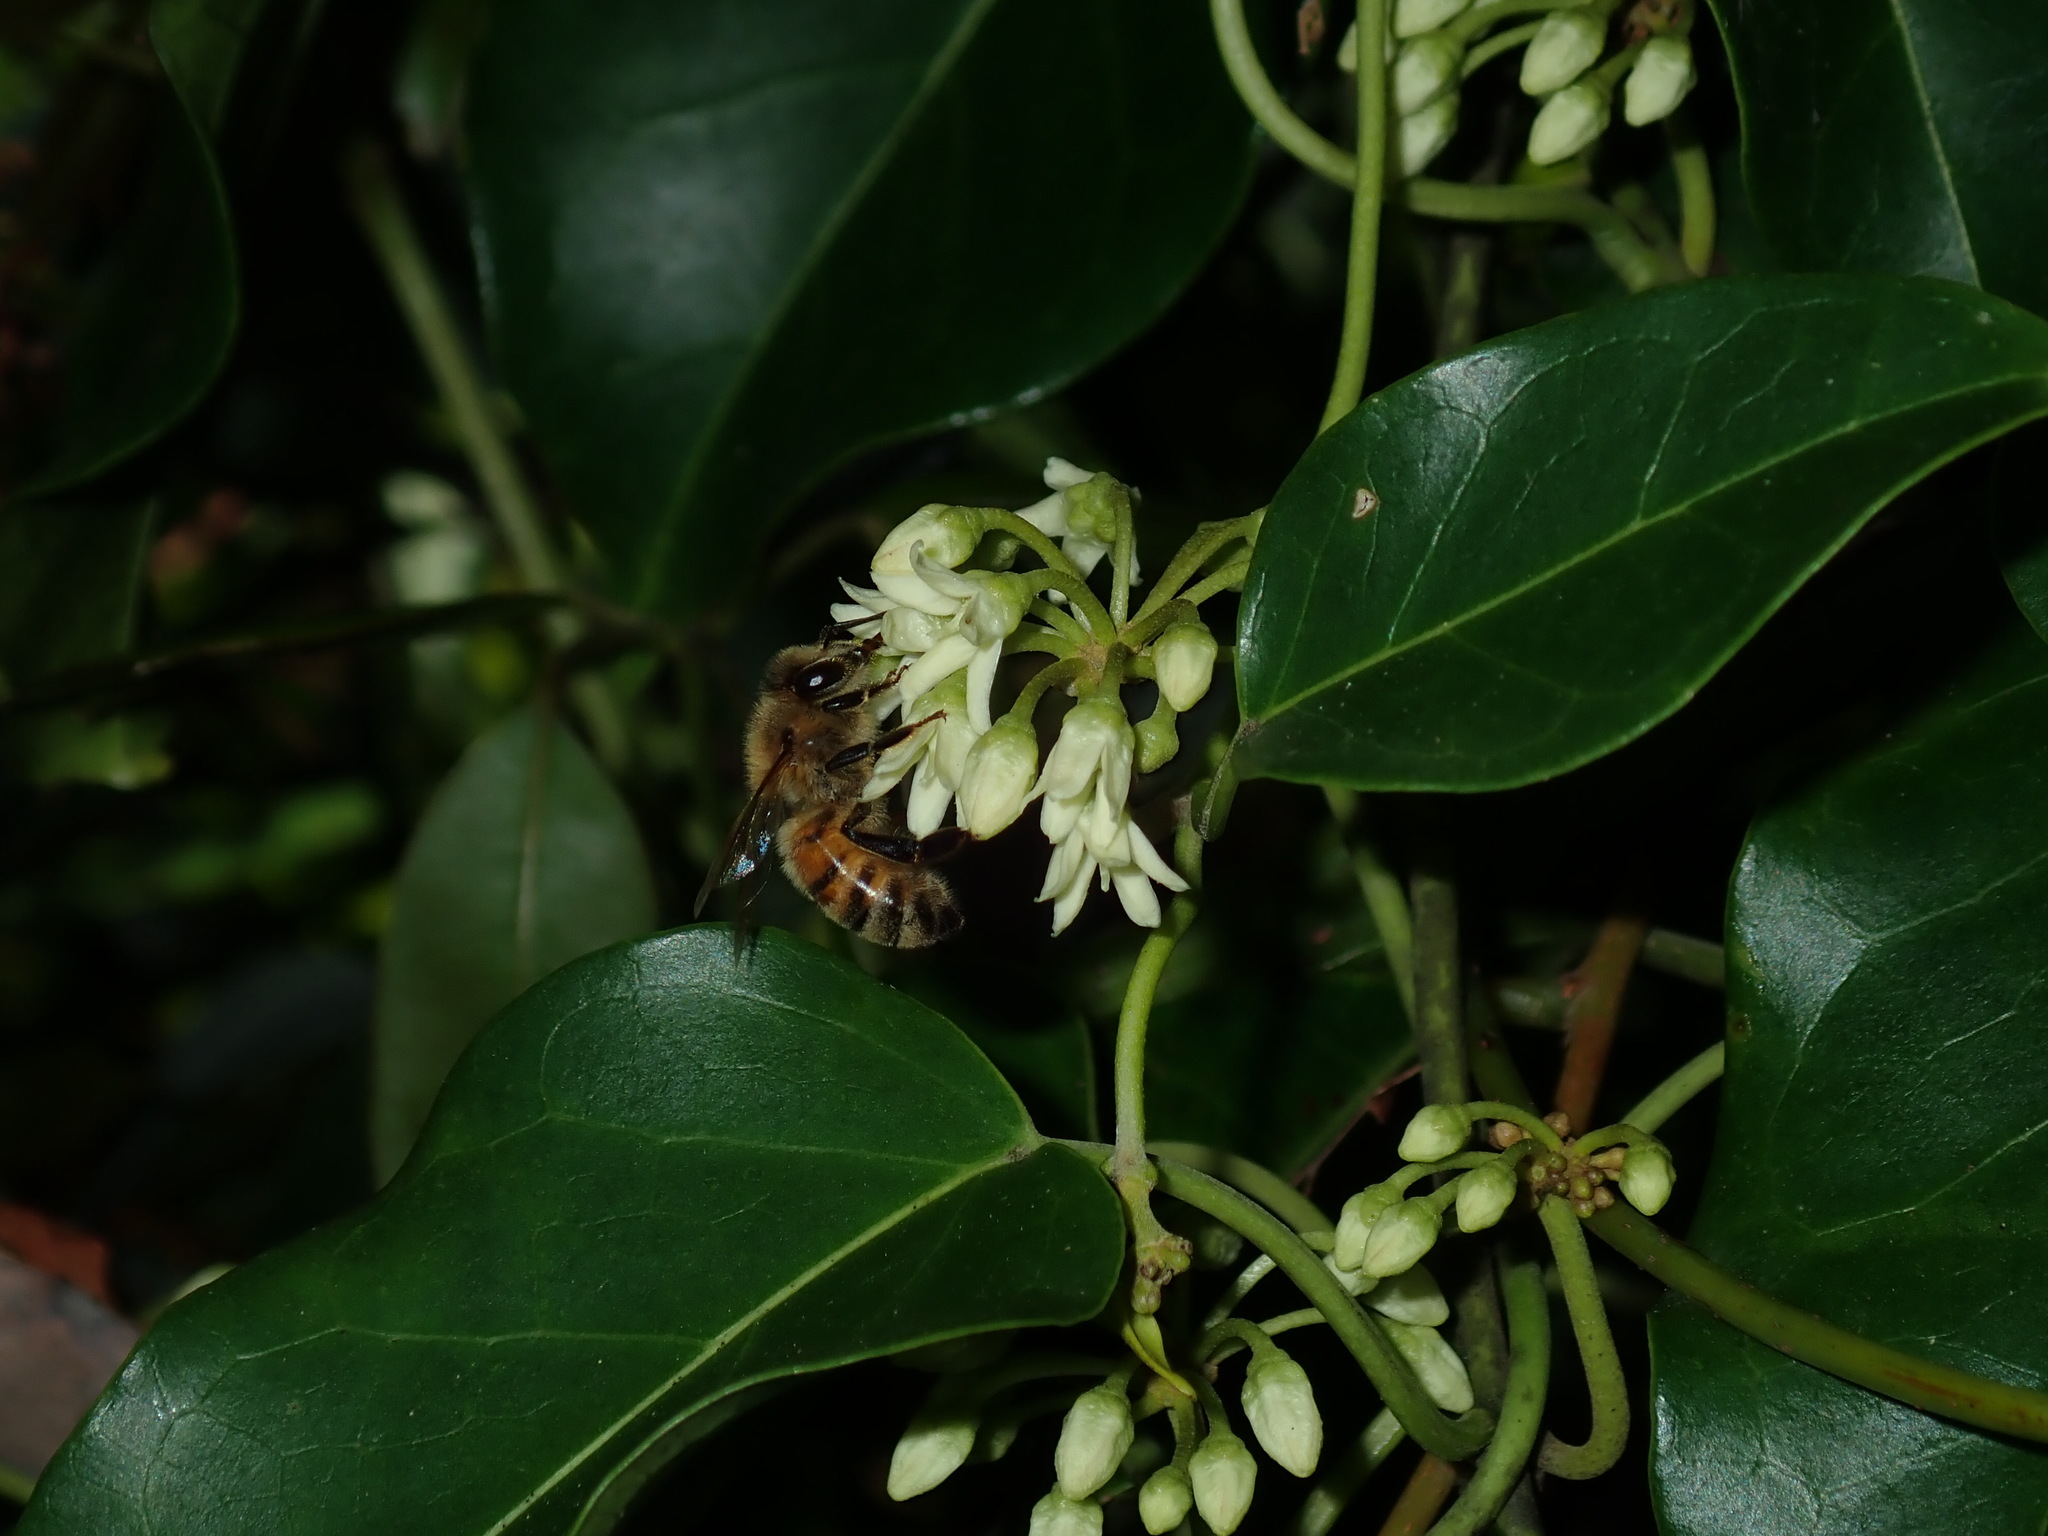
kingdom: Animalia
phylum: Arthropoda
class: Insecta
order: Hymenoptera
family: Apidae
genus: Apis
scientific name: Apis mellifera
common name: Honey bee
